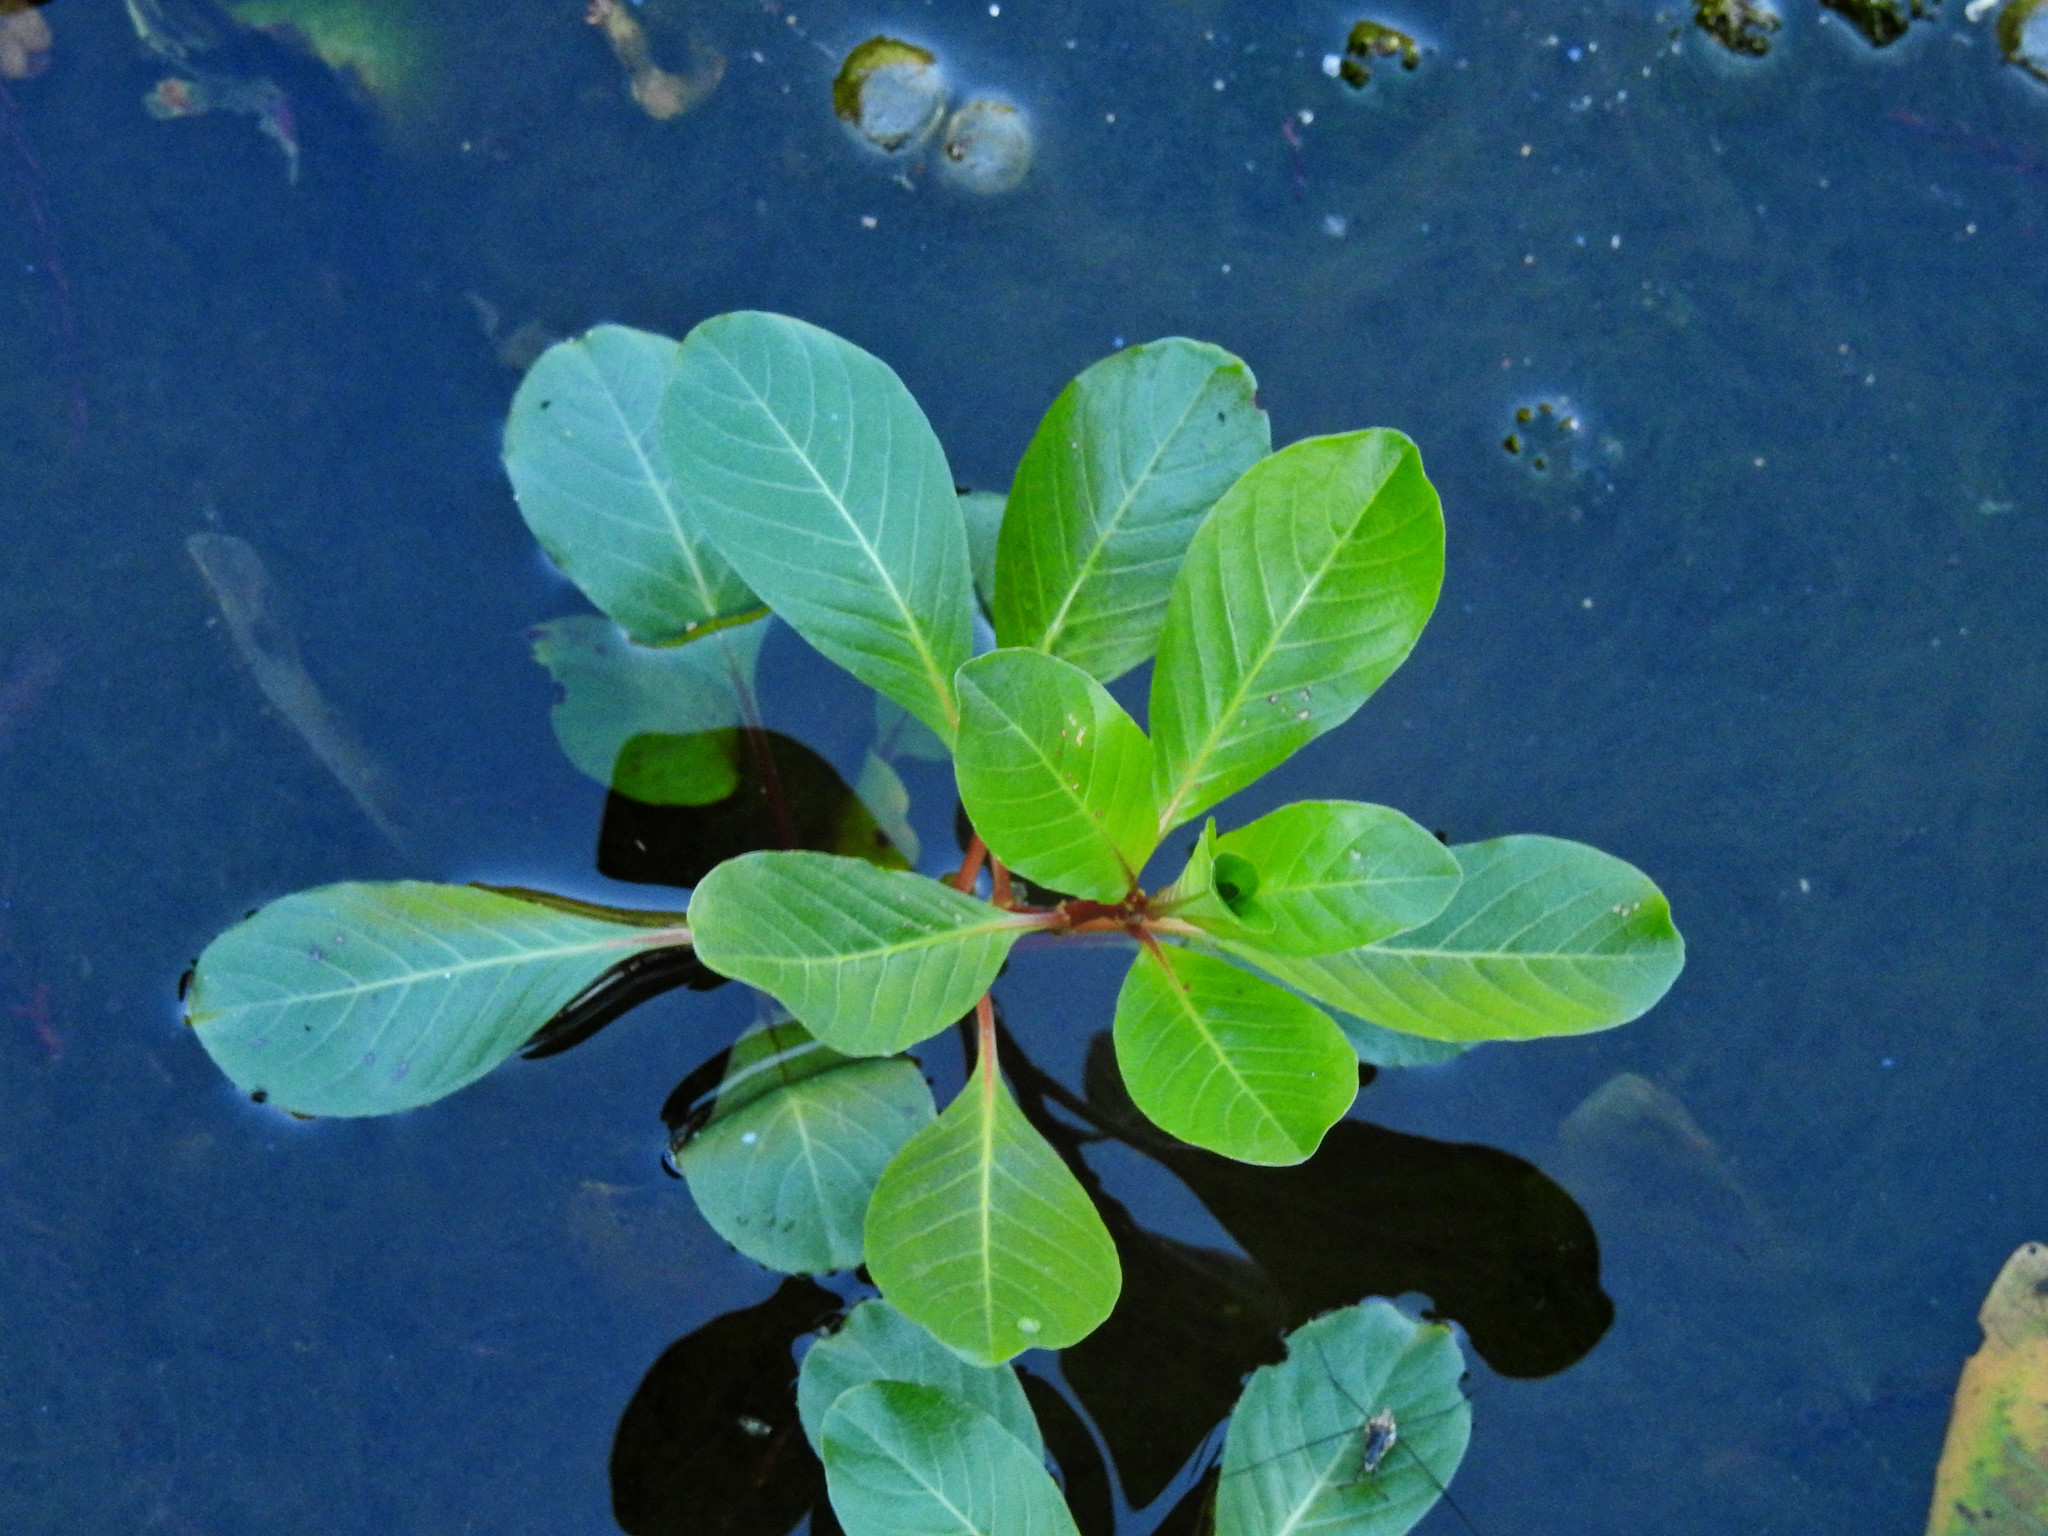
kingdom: Plantae
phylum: Tracheophyta
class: Magnoliopsida
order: Myrtales
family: Onagraceae
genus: Ludwigia
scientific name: Ludwigia hexapetala
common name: Water-primrose
